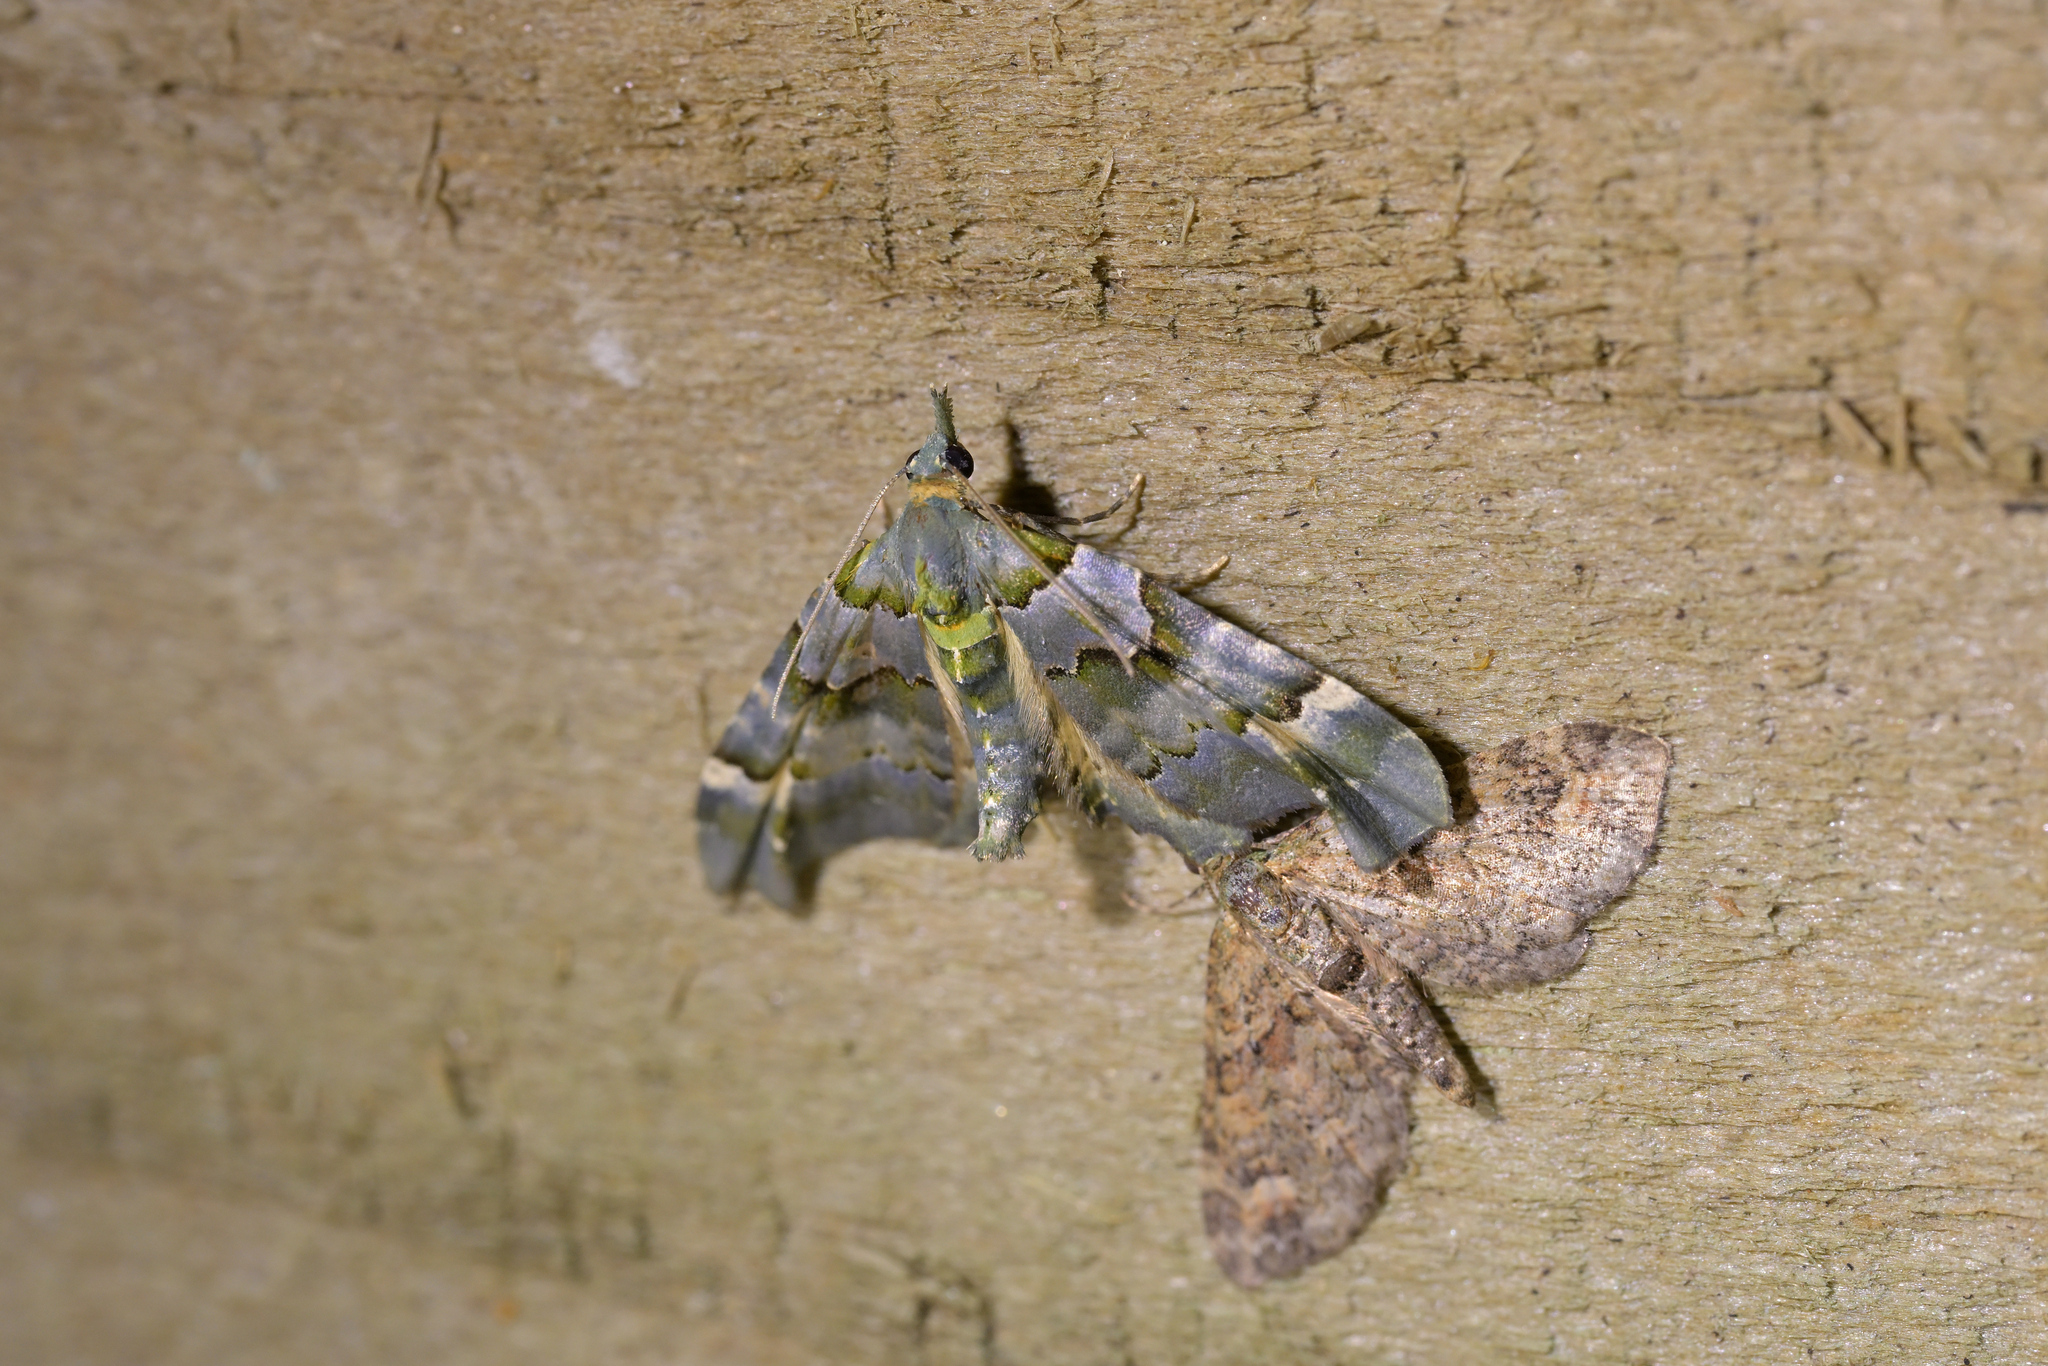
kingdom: Animalia
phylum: Arthropoda
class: Insecta
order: Lepidoptera
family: Geometridae
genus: Elvia
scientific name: Elvia glaucata
